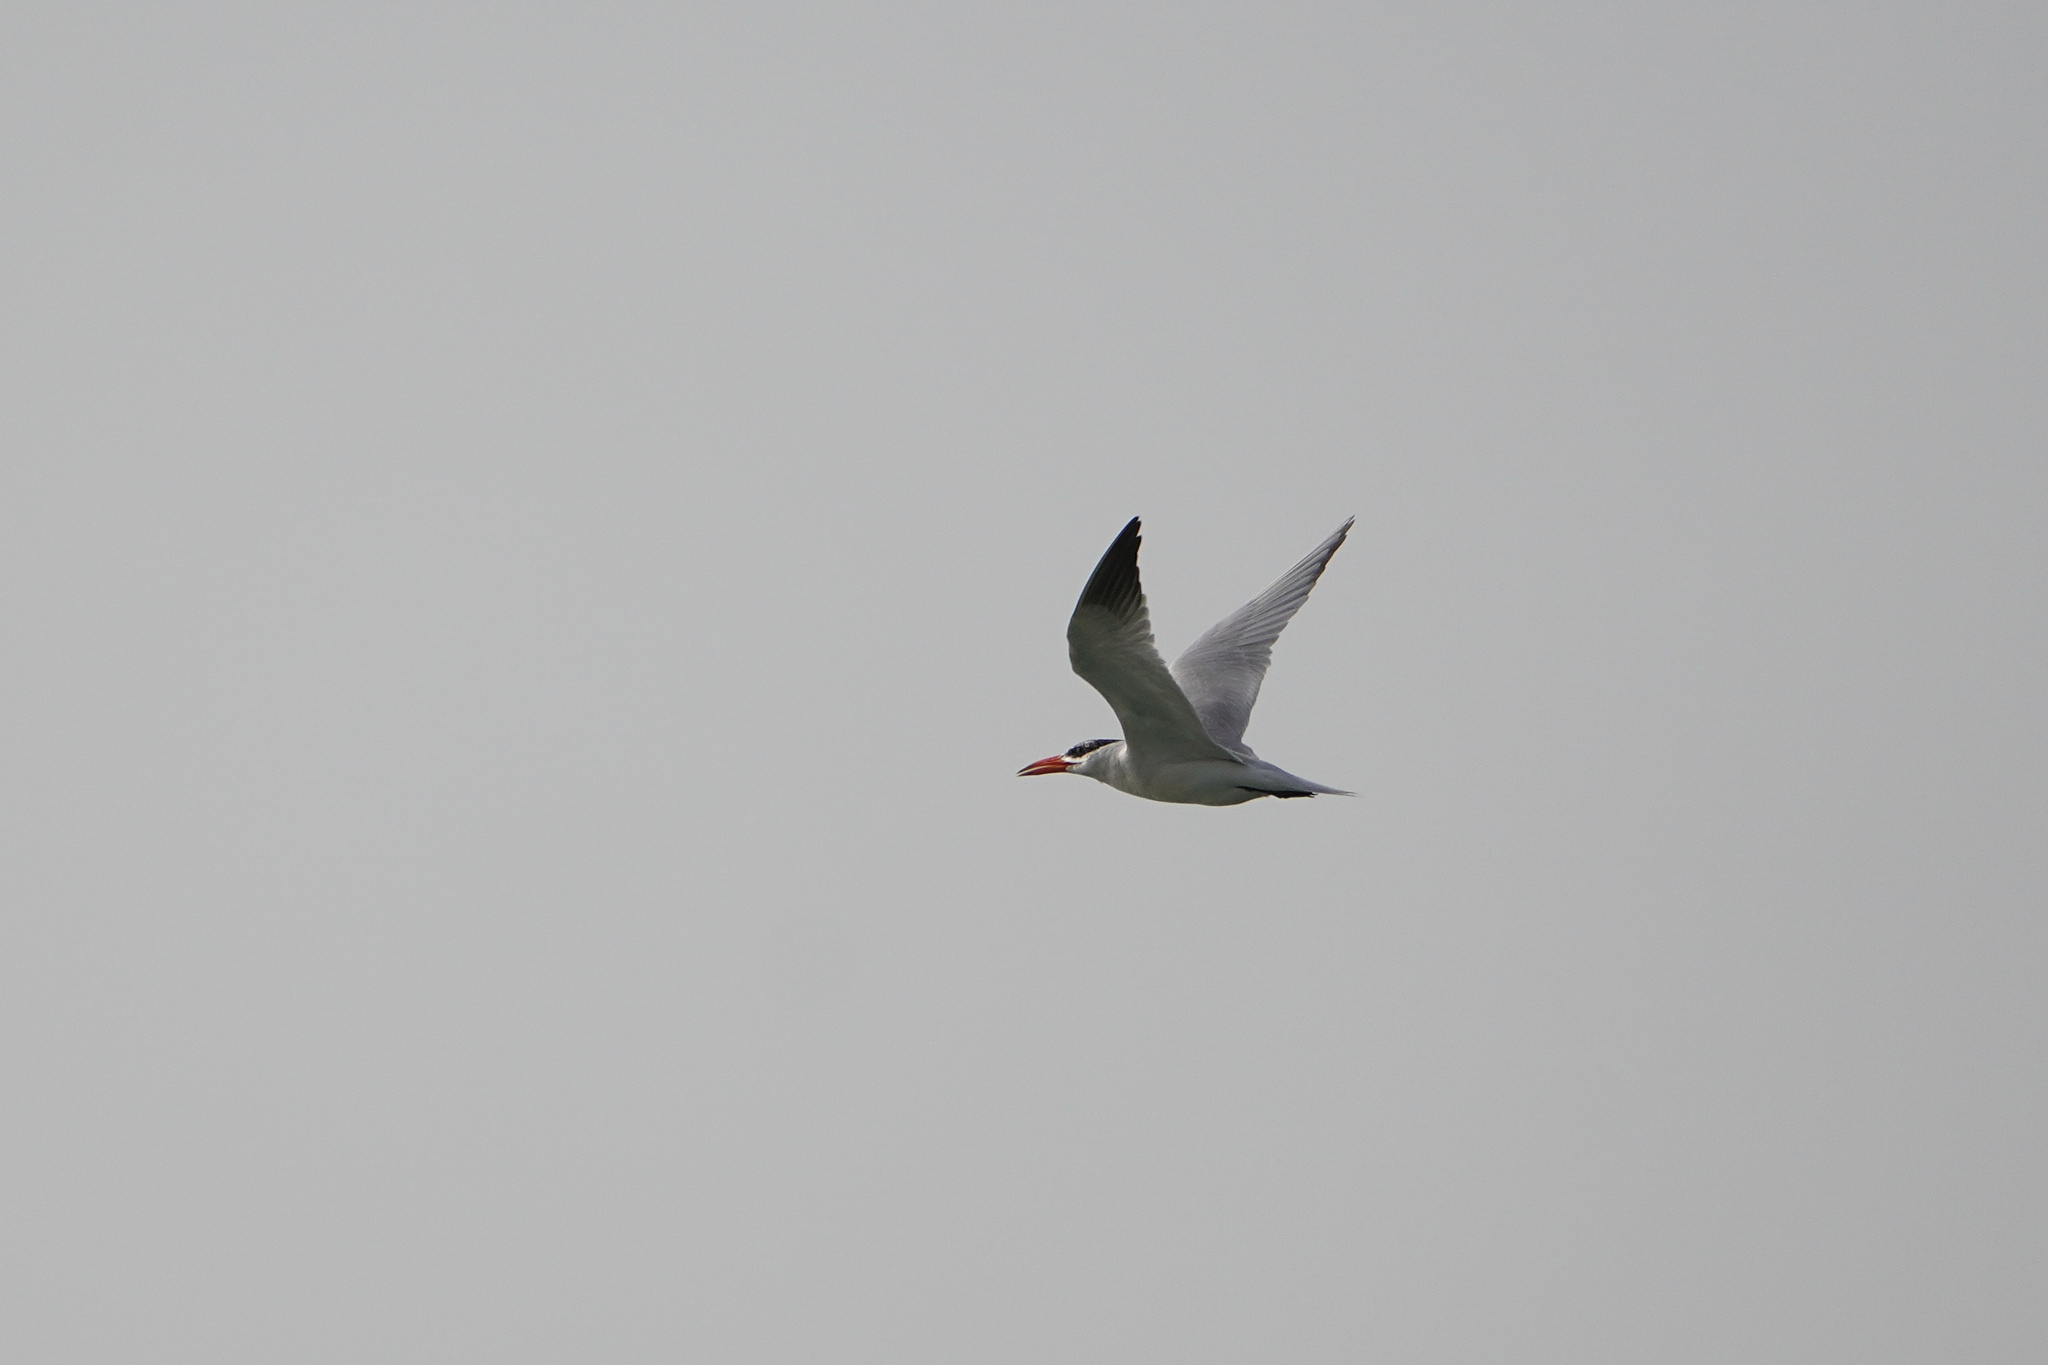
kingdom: Animalia
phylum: Chordata
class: Aves
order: Charadriiformes
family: Laridae
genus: Hydroprogne
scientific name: Hydroprogne caspia
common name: Caspian tern
